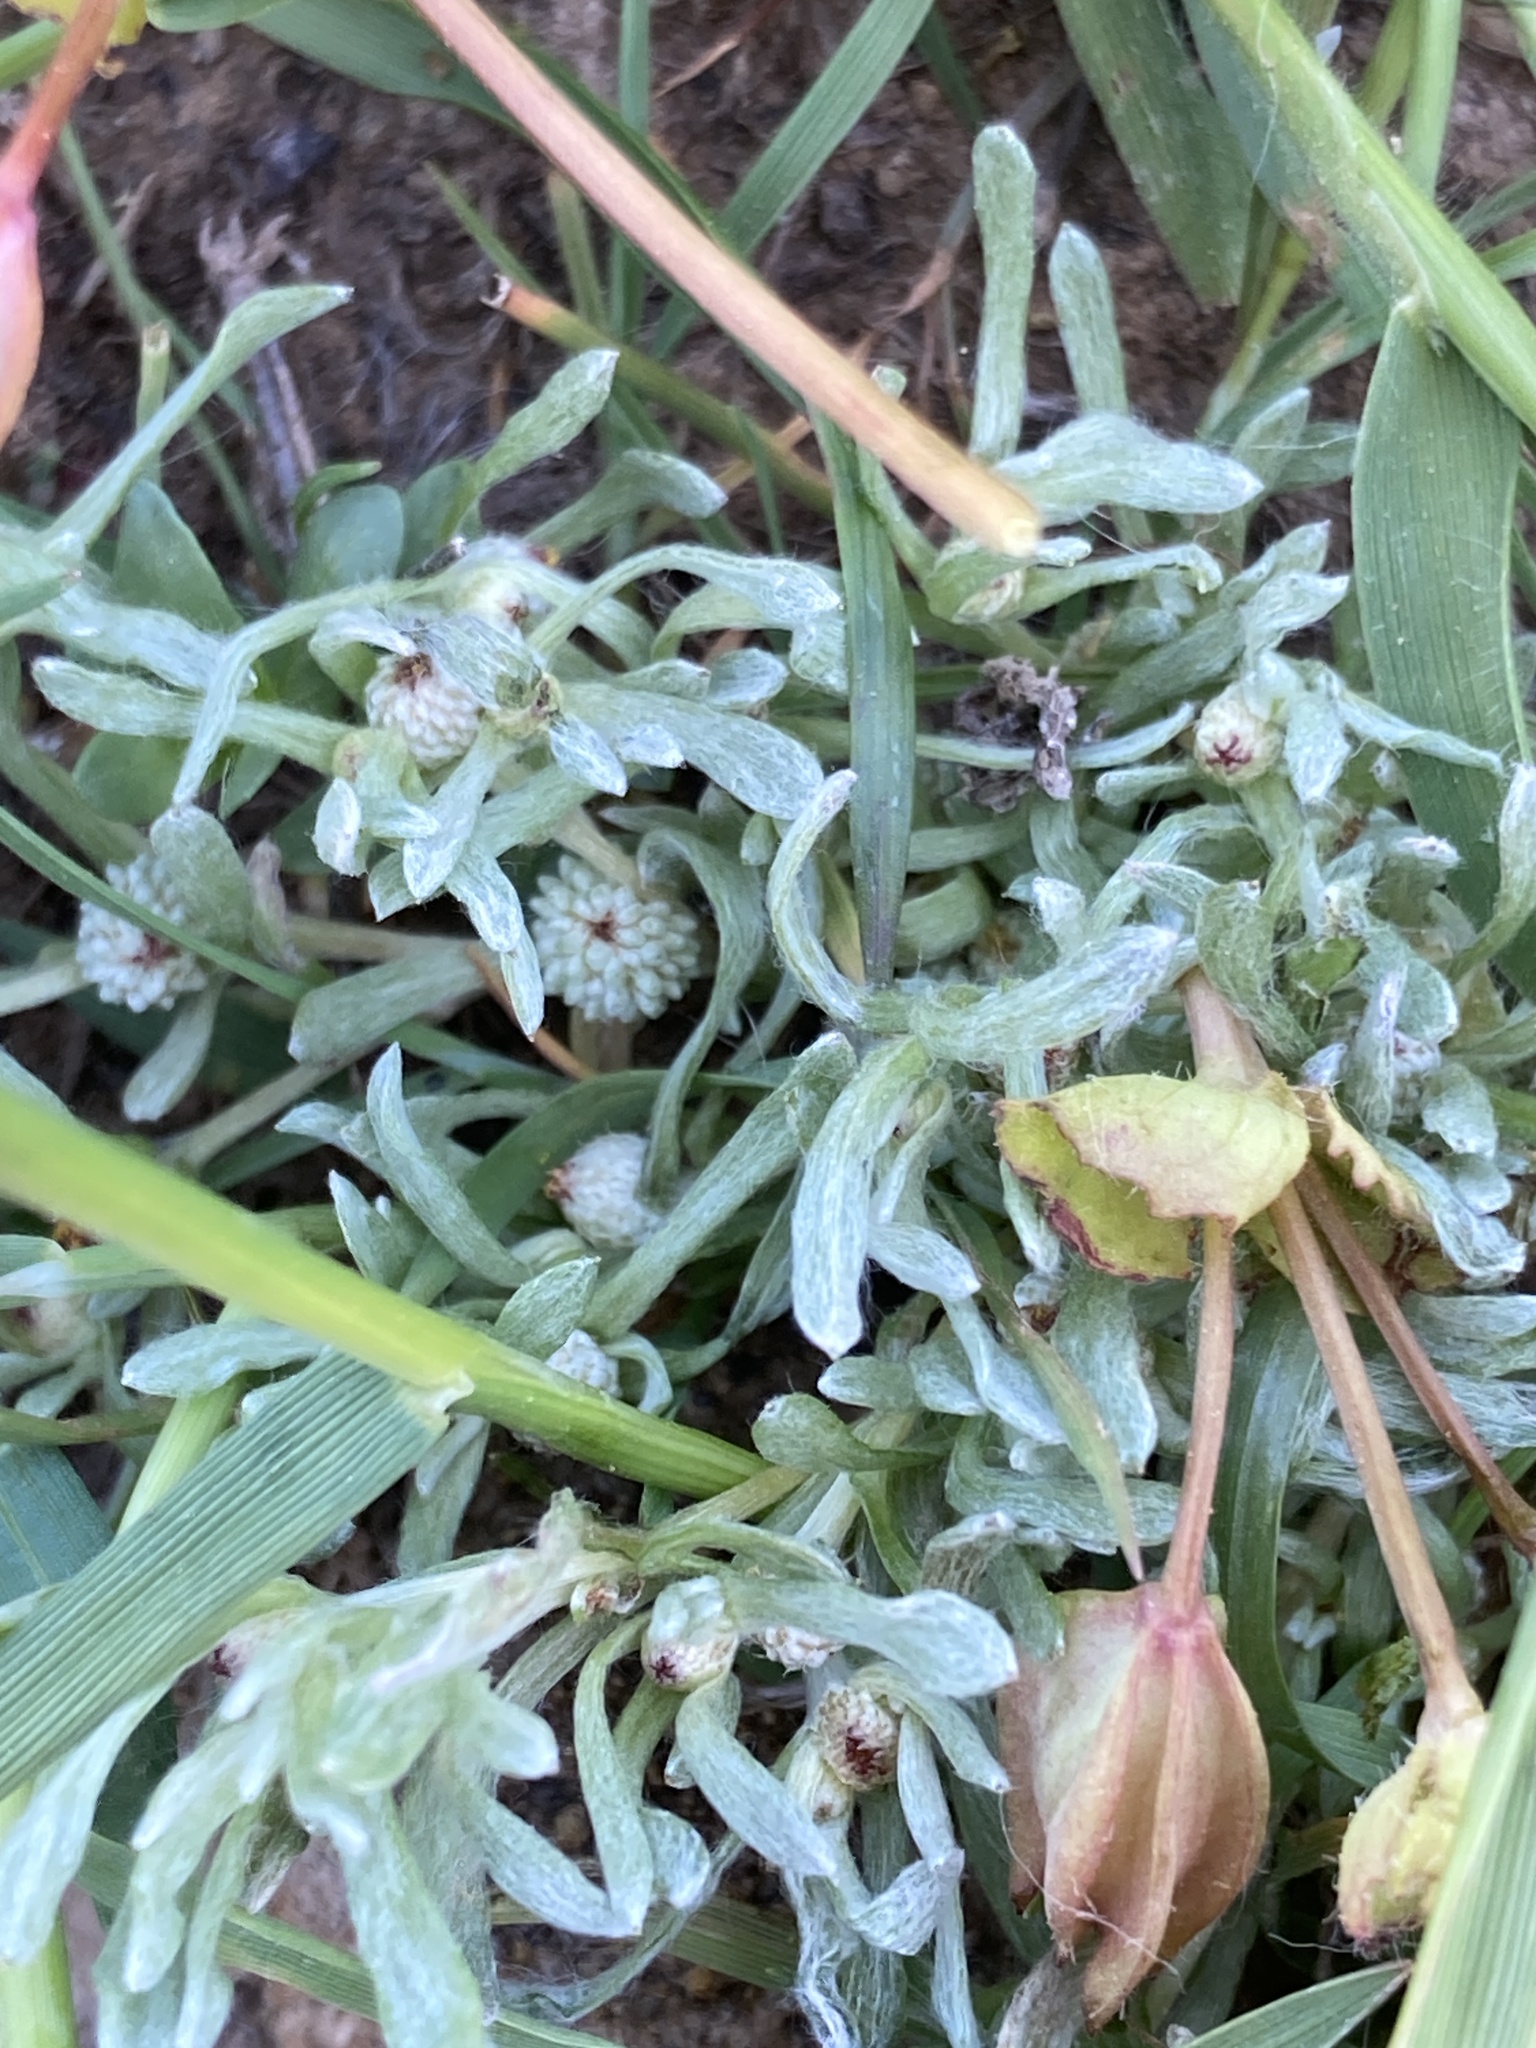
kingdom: Plantae
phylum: Tracheophyta
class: Magnoliopsida
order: Asterales
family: Asteraceae
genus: Psilocarphus
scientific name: Psilocarphus oregonus
